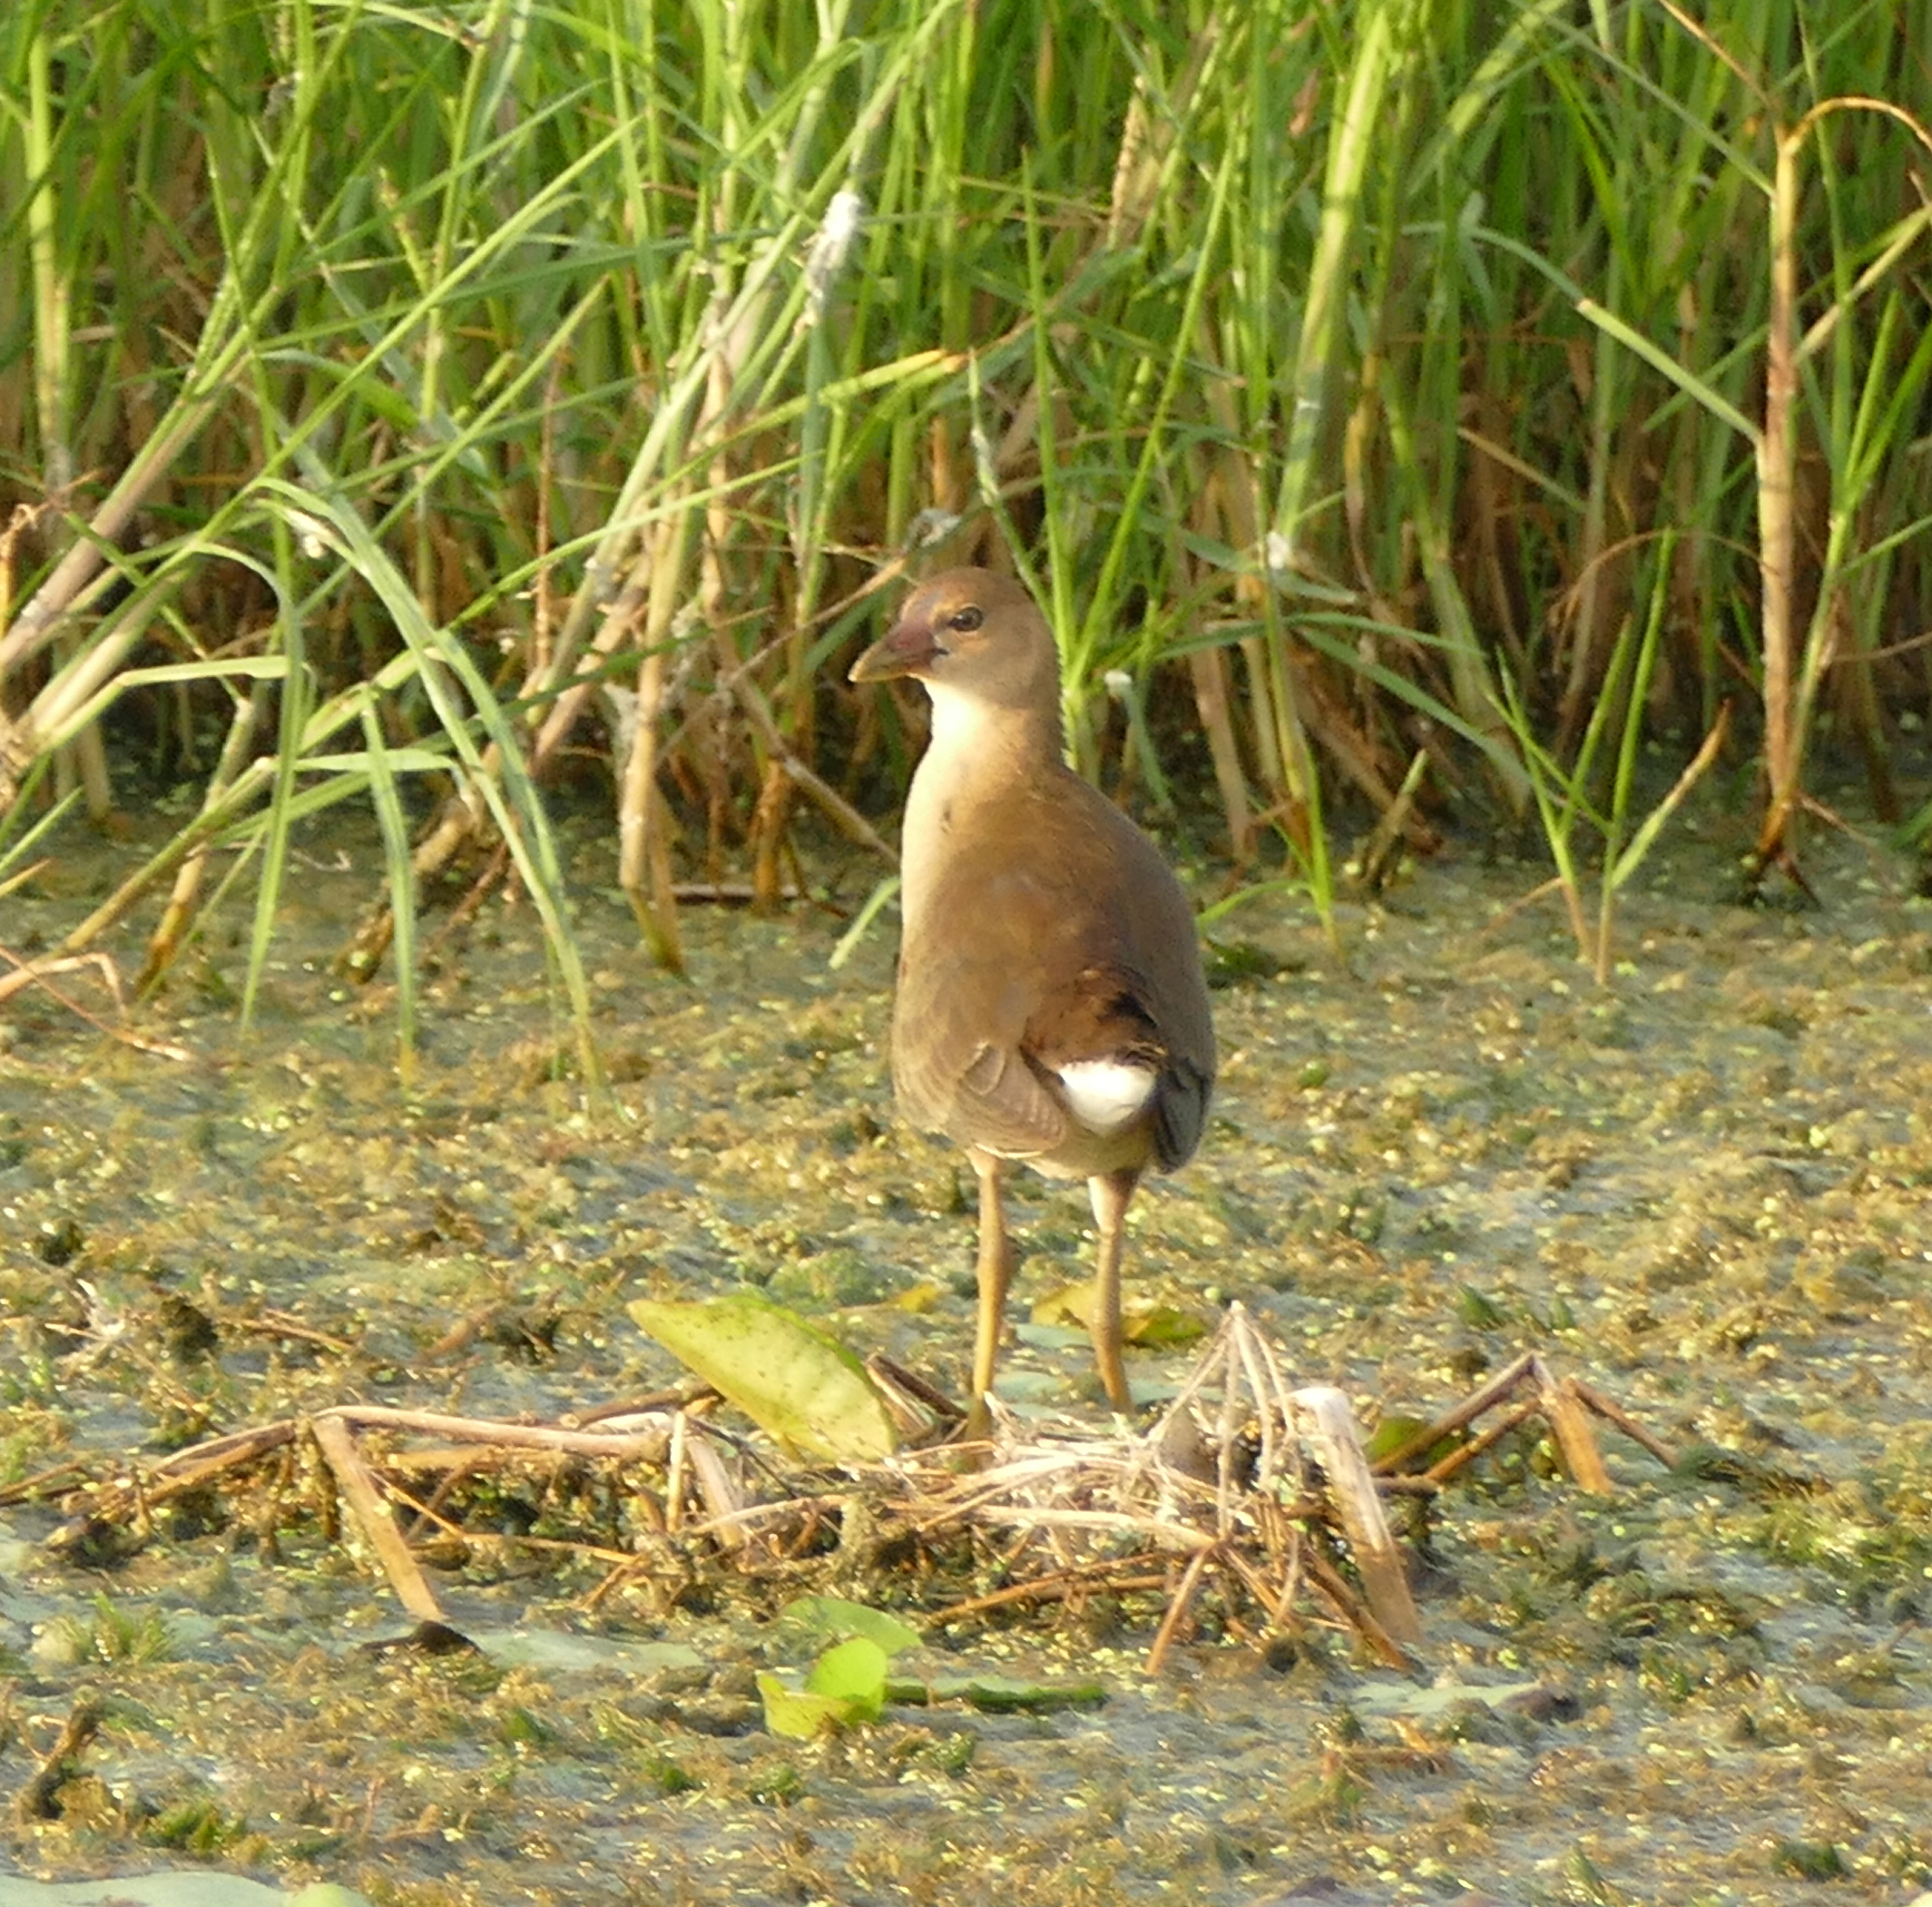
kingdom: Animalia
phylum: Chordata
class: Aves
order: Gruiformes
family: Rallidae
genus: Porphyrio
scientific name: Porphyrio martinica
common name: Purple gallinule
